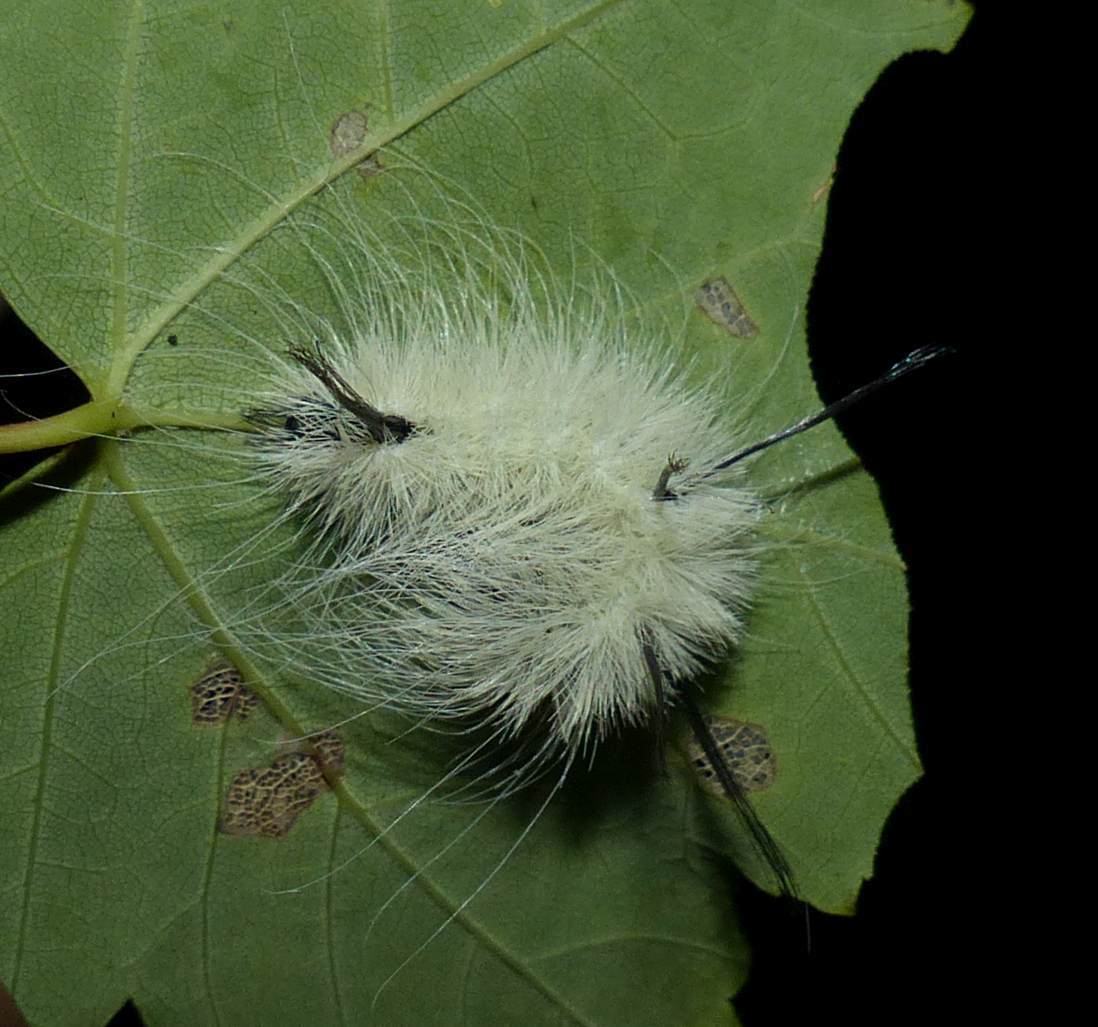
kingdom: Animalia
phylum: Arthropoda
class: Insecta
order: Lepidoptera
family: Noctuidae
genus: Acronicta
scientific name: Acronicta americana
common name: American dagger
